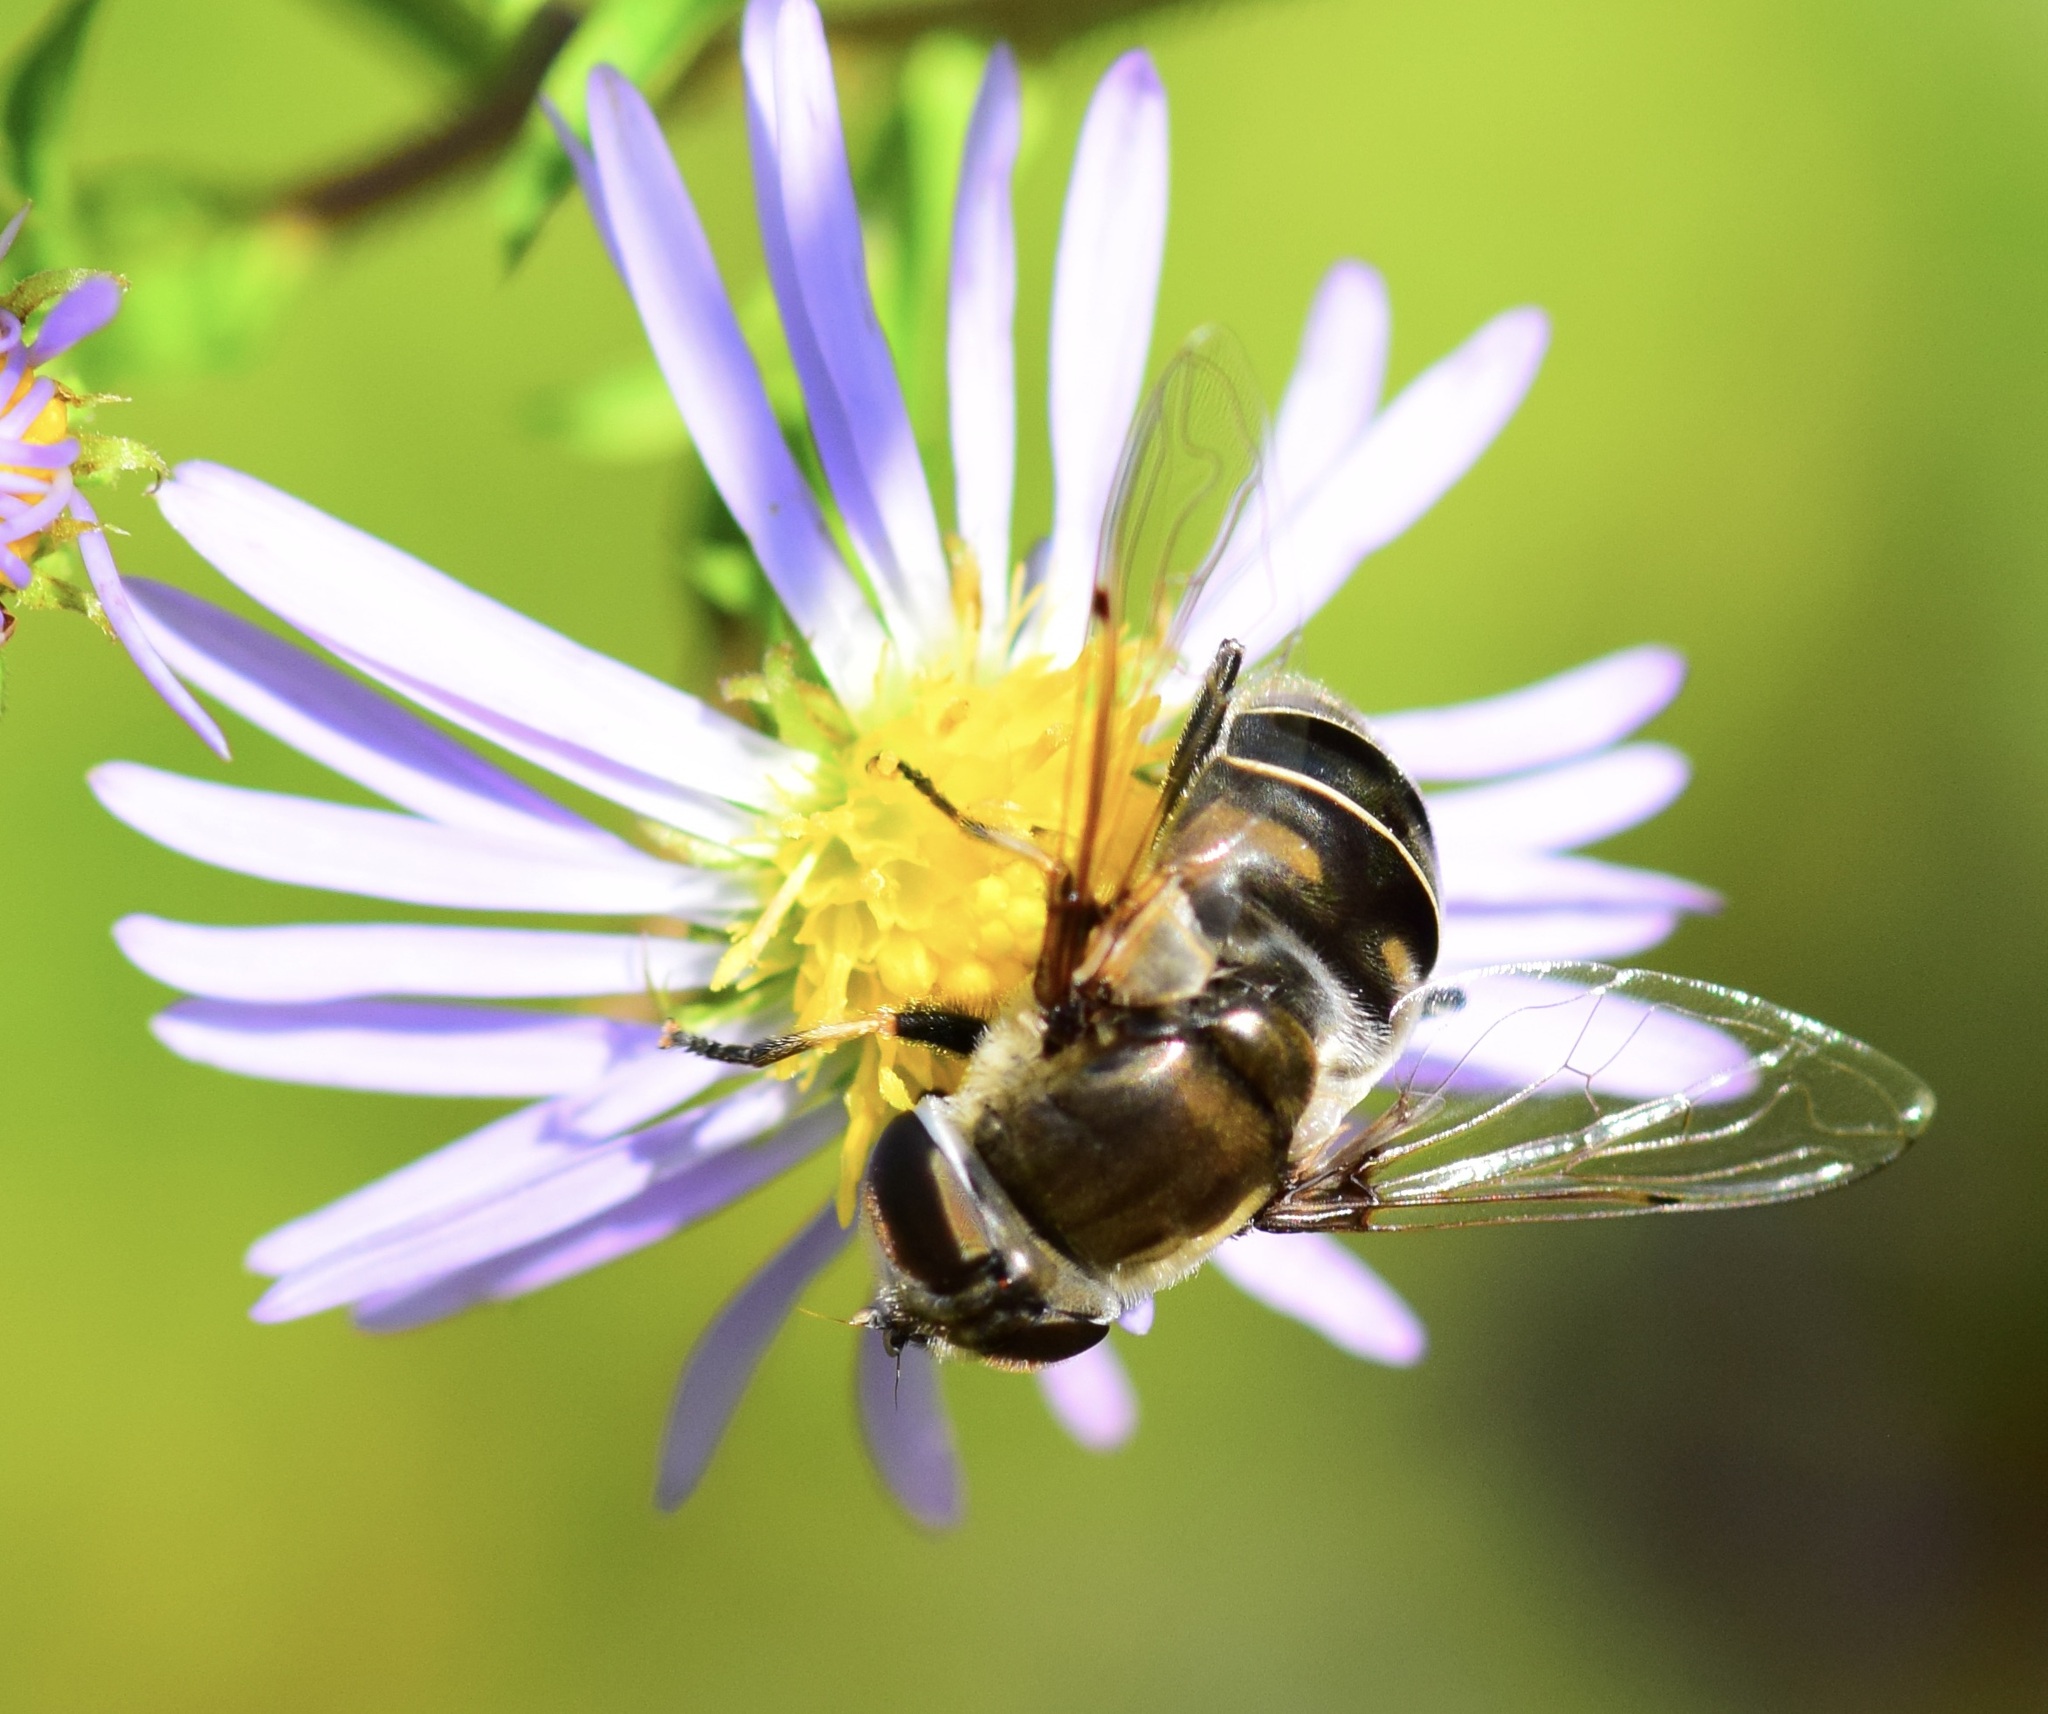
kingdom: Animalia
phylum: Arthropoda
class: Insecta
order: Diptera
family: Syrphidae
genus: Eristalis
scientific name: Eristalis dimidiata
